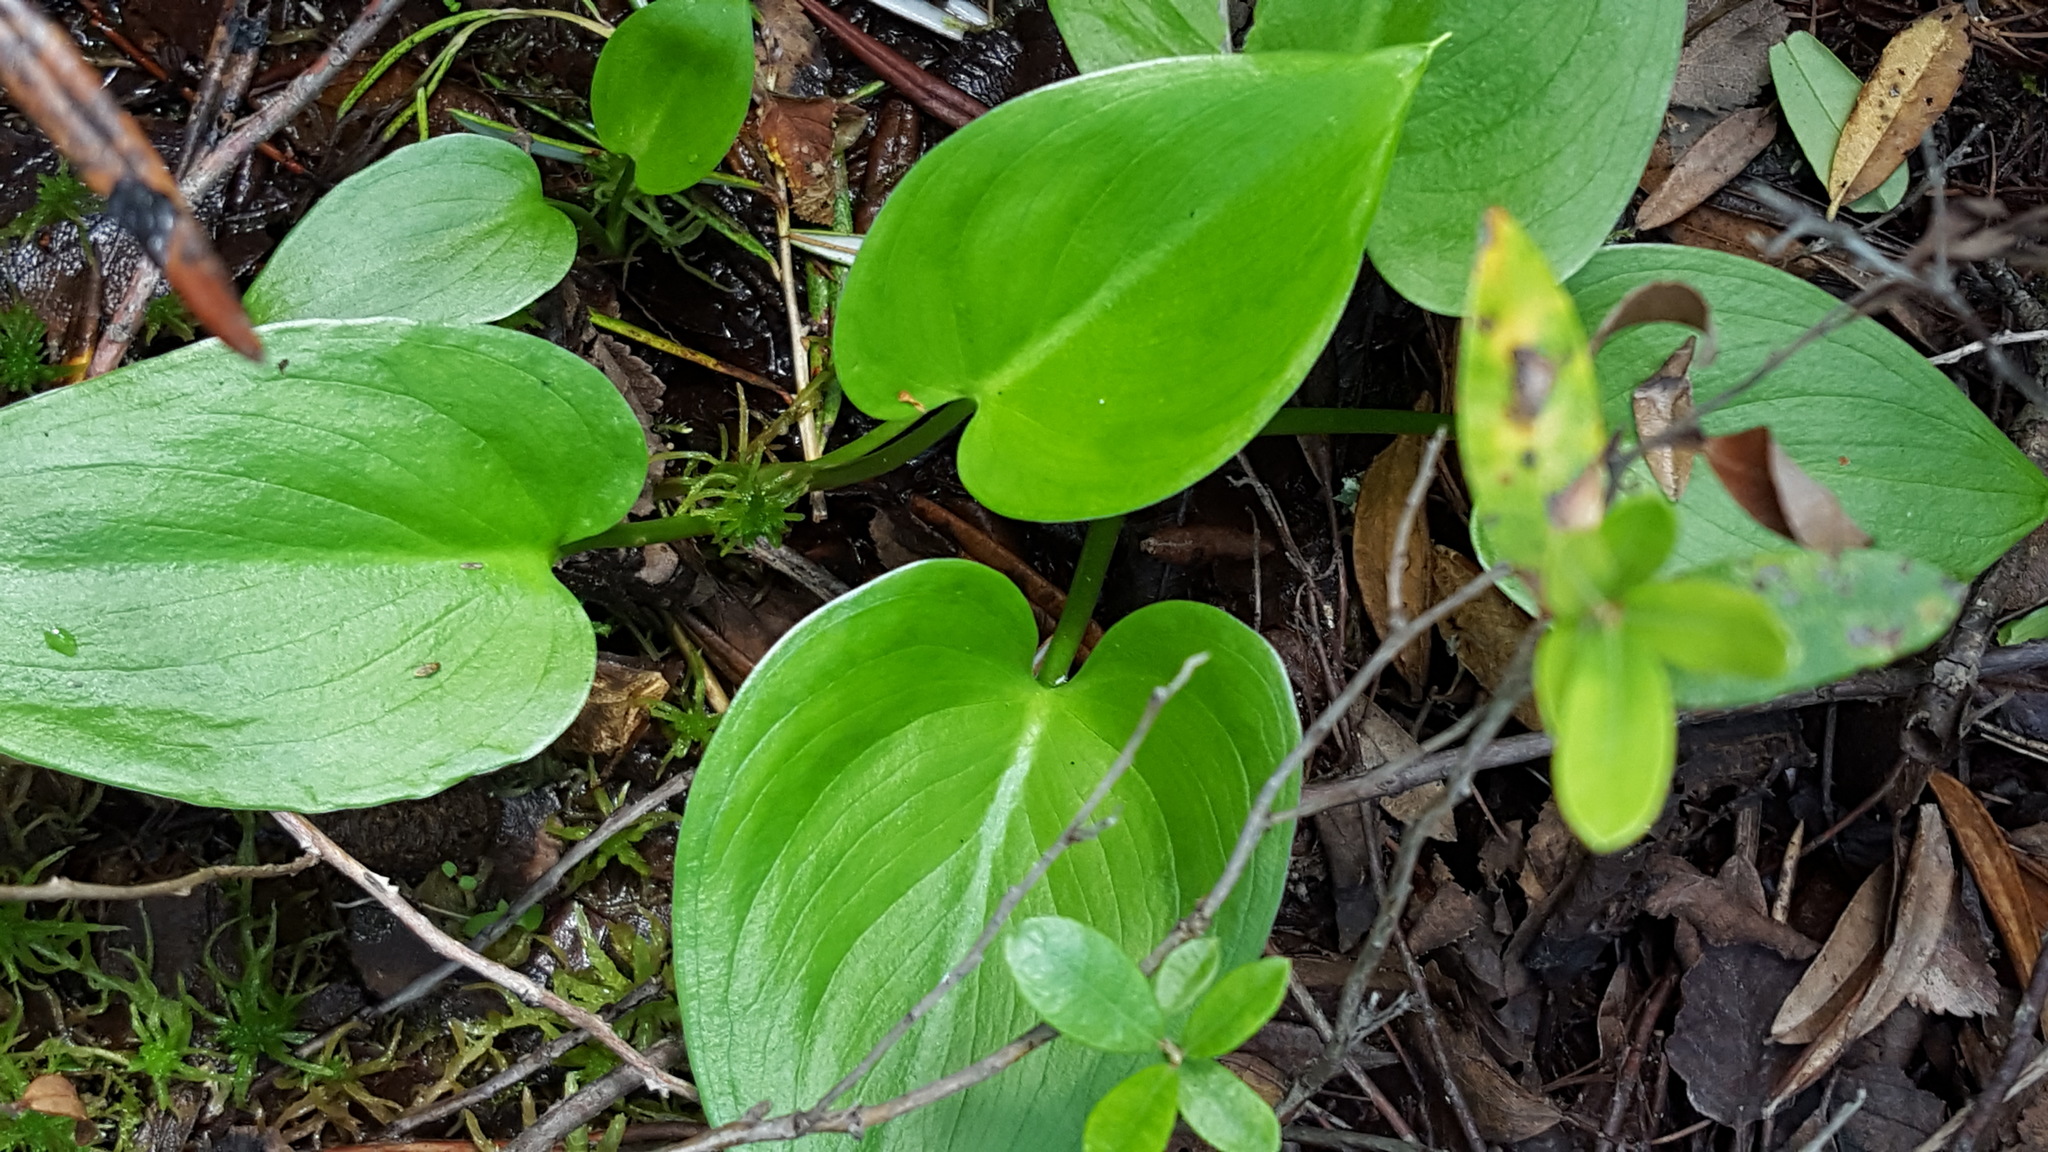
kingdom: Plantae
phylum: Tracheophyta
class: Liliopsida
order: Alismatales
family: Araceae
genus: Calla
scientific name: Calla palustris
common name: Bog arum
